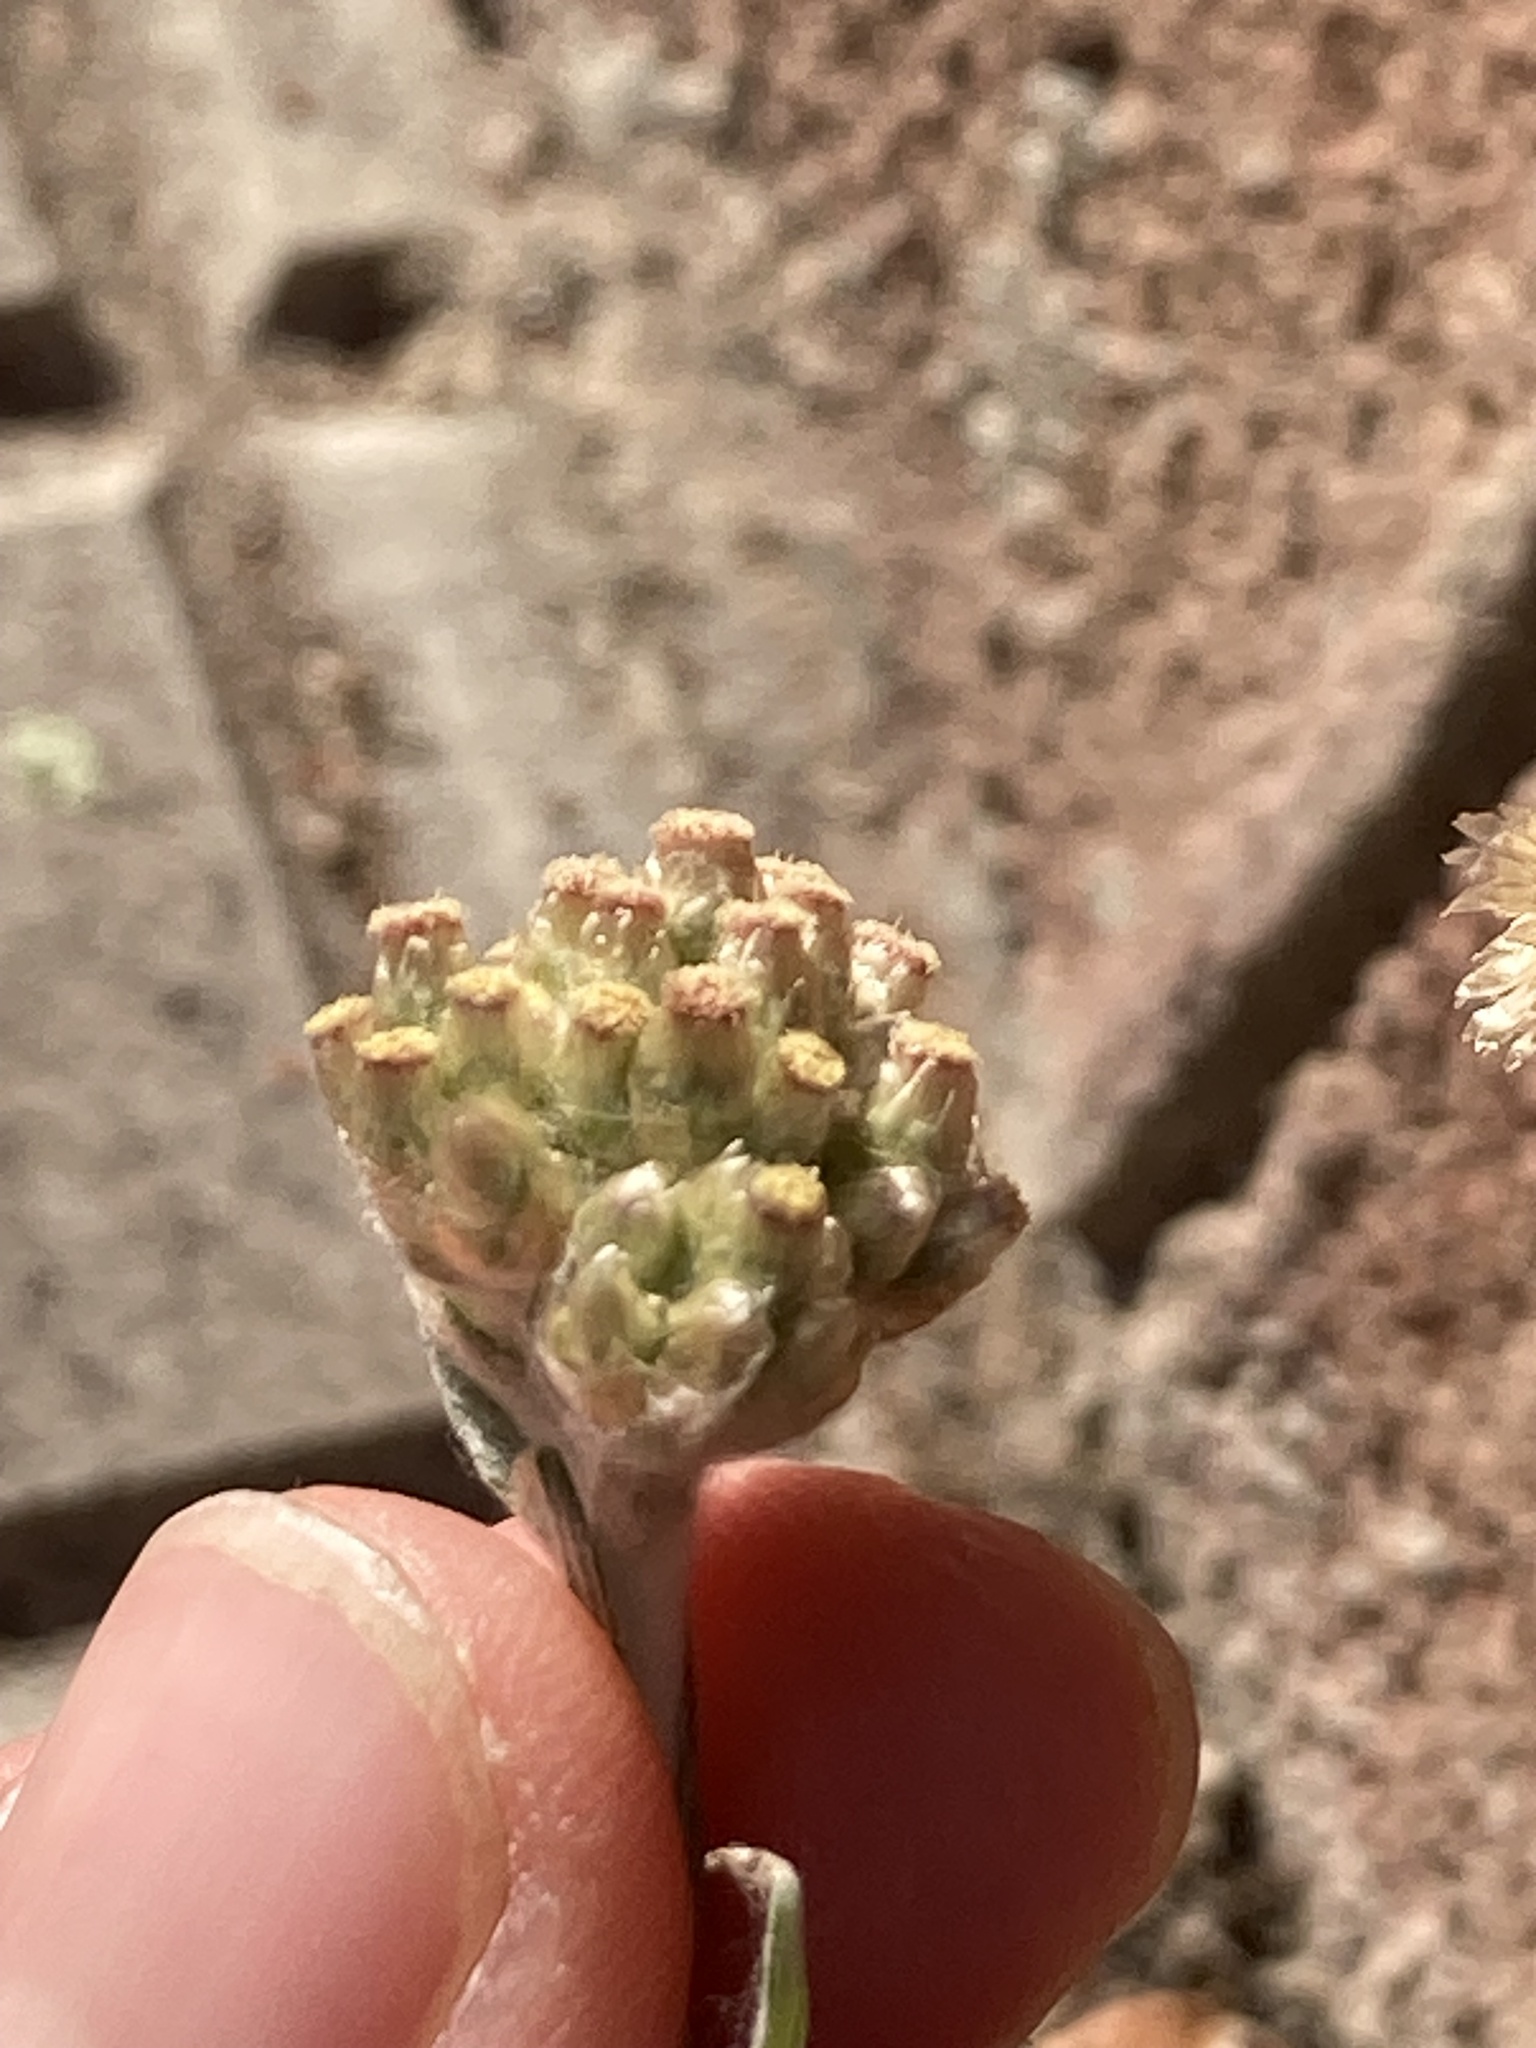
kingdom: Plantae
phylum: Tracheophyta
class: Magnoliopsida
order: Asterales
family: Asteraceae
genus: Helichrysum
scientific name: Helichrysum luteoalbum
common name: Daisy
